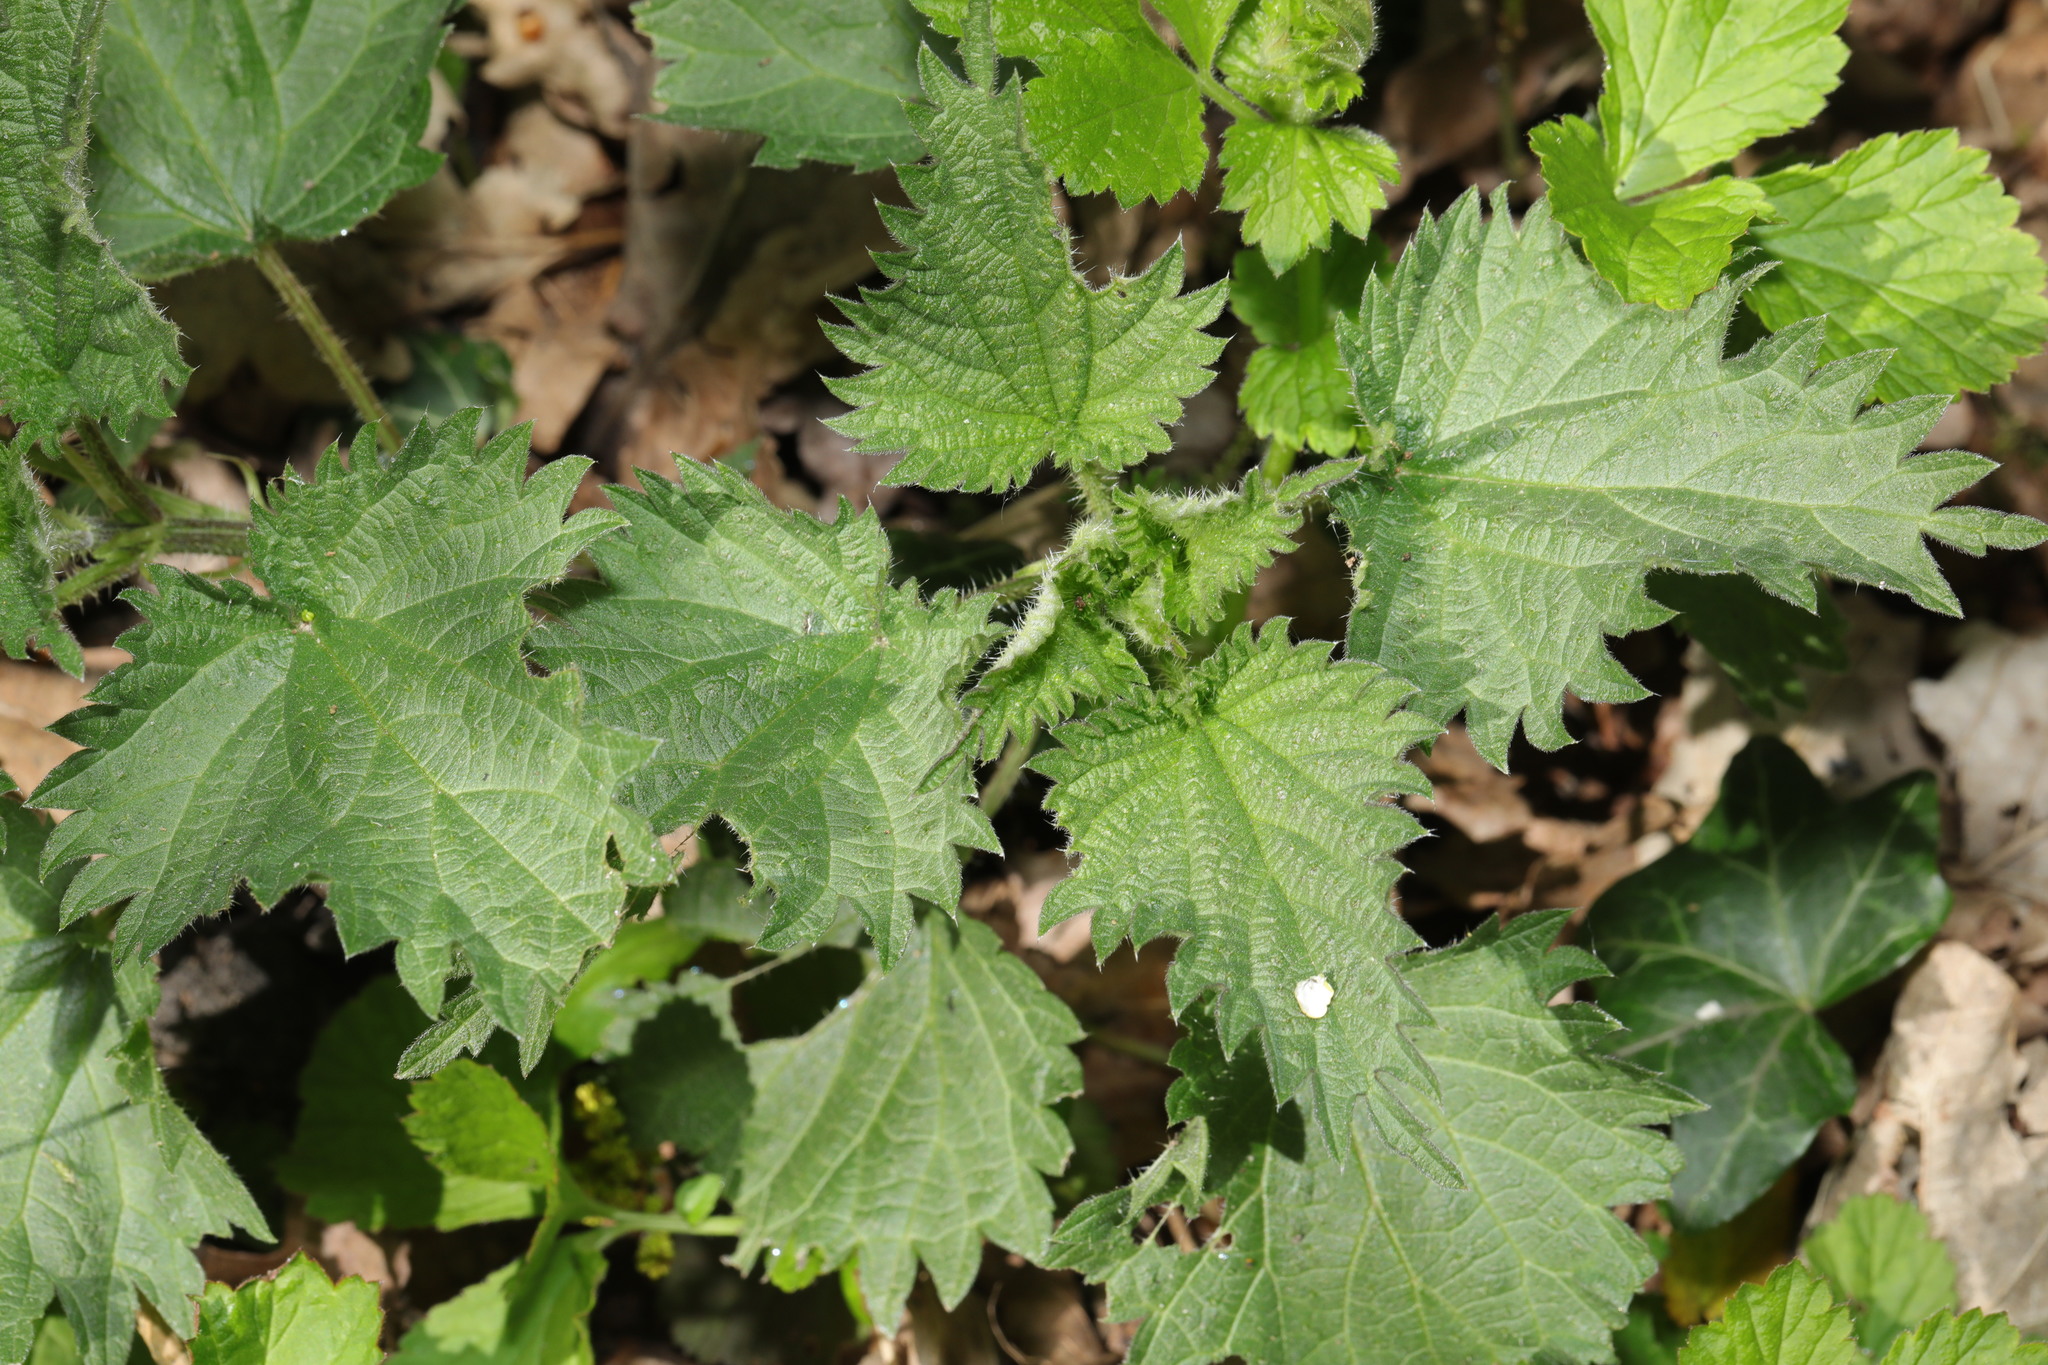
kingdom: Plantae
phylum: Tracheophyta
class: Magnoliopsida
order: Rosales
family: Urticaceae
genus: Urtica
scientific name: Urtica dioica
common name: Common nettle
